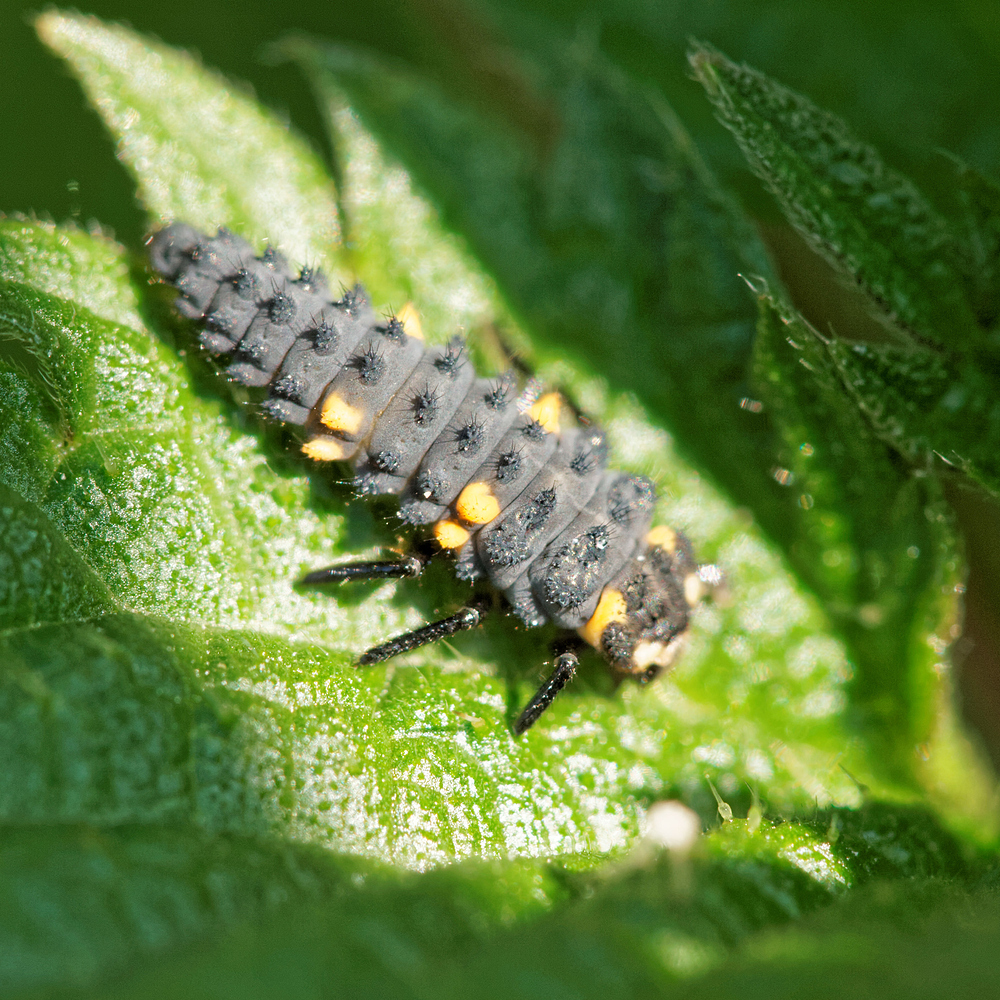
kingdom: Animalia
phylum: Arthropoda
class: Insecta
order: Coleoptera
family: Coccinellidae
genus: Coccinella
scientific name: Coccinella septempunctata
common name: Sevenspotted lady beetle
